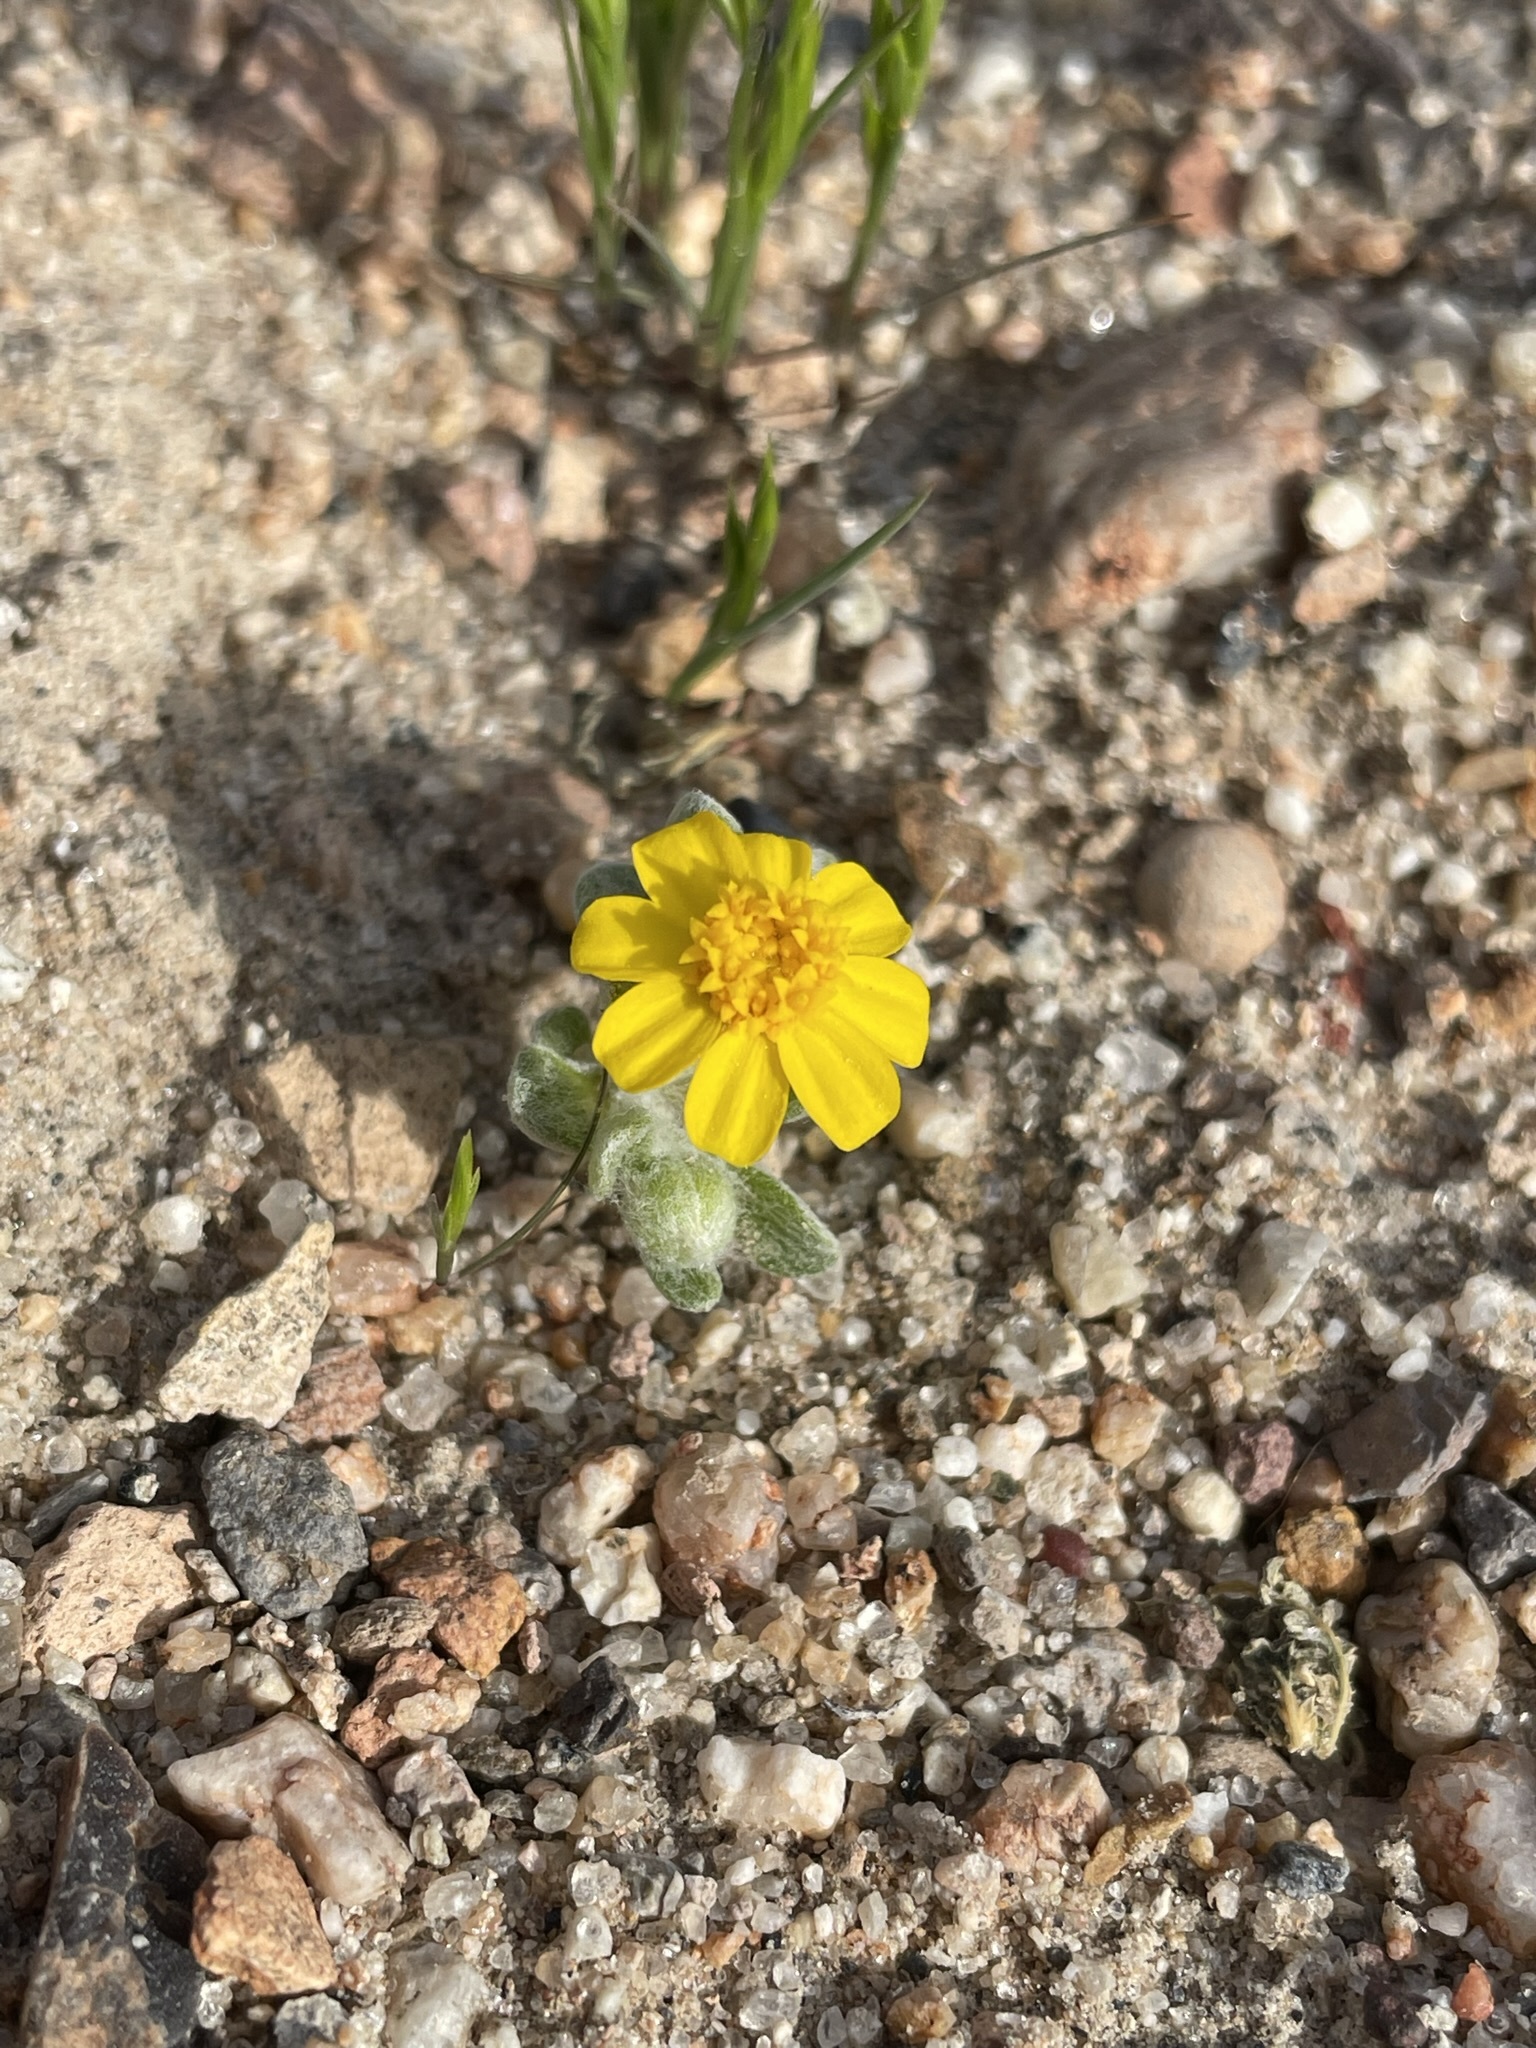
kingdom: Plantae
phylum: Tracheophyta
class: Magnoliopsida
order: Asterales
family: Asteraceae
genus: Eriophyllum
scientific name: Eriophyllum wallacei
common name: Wallace's woolly daisy
